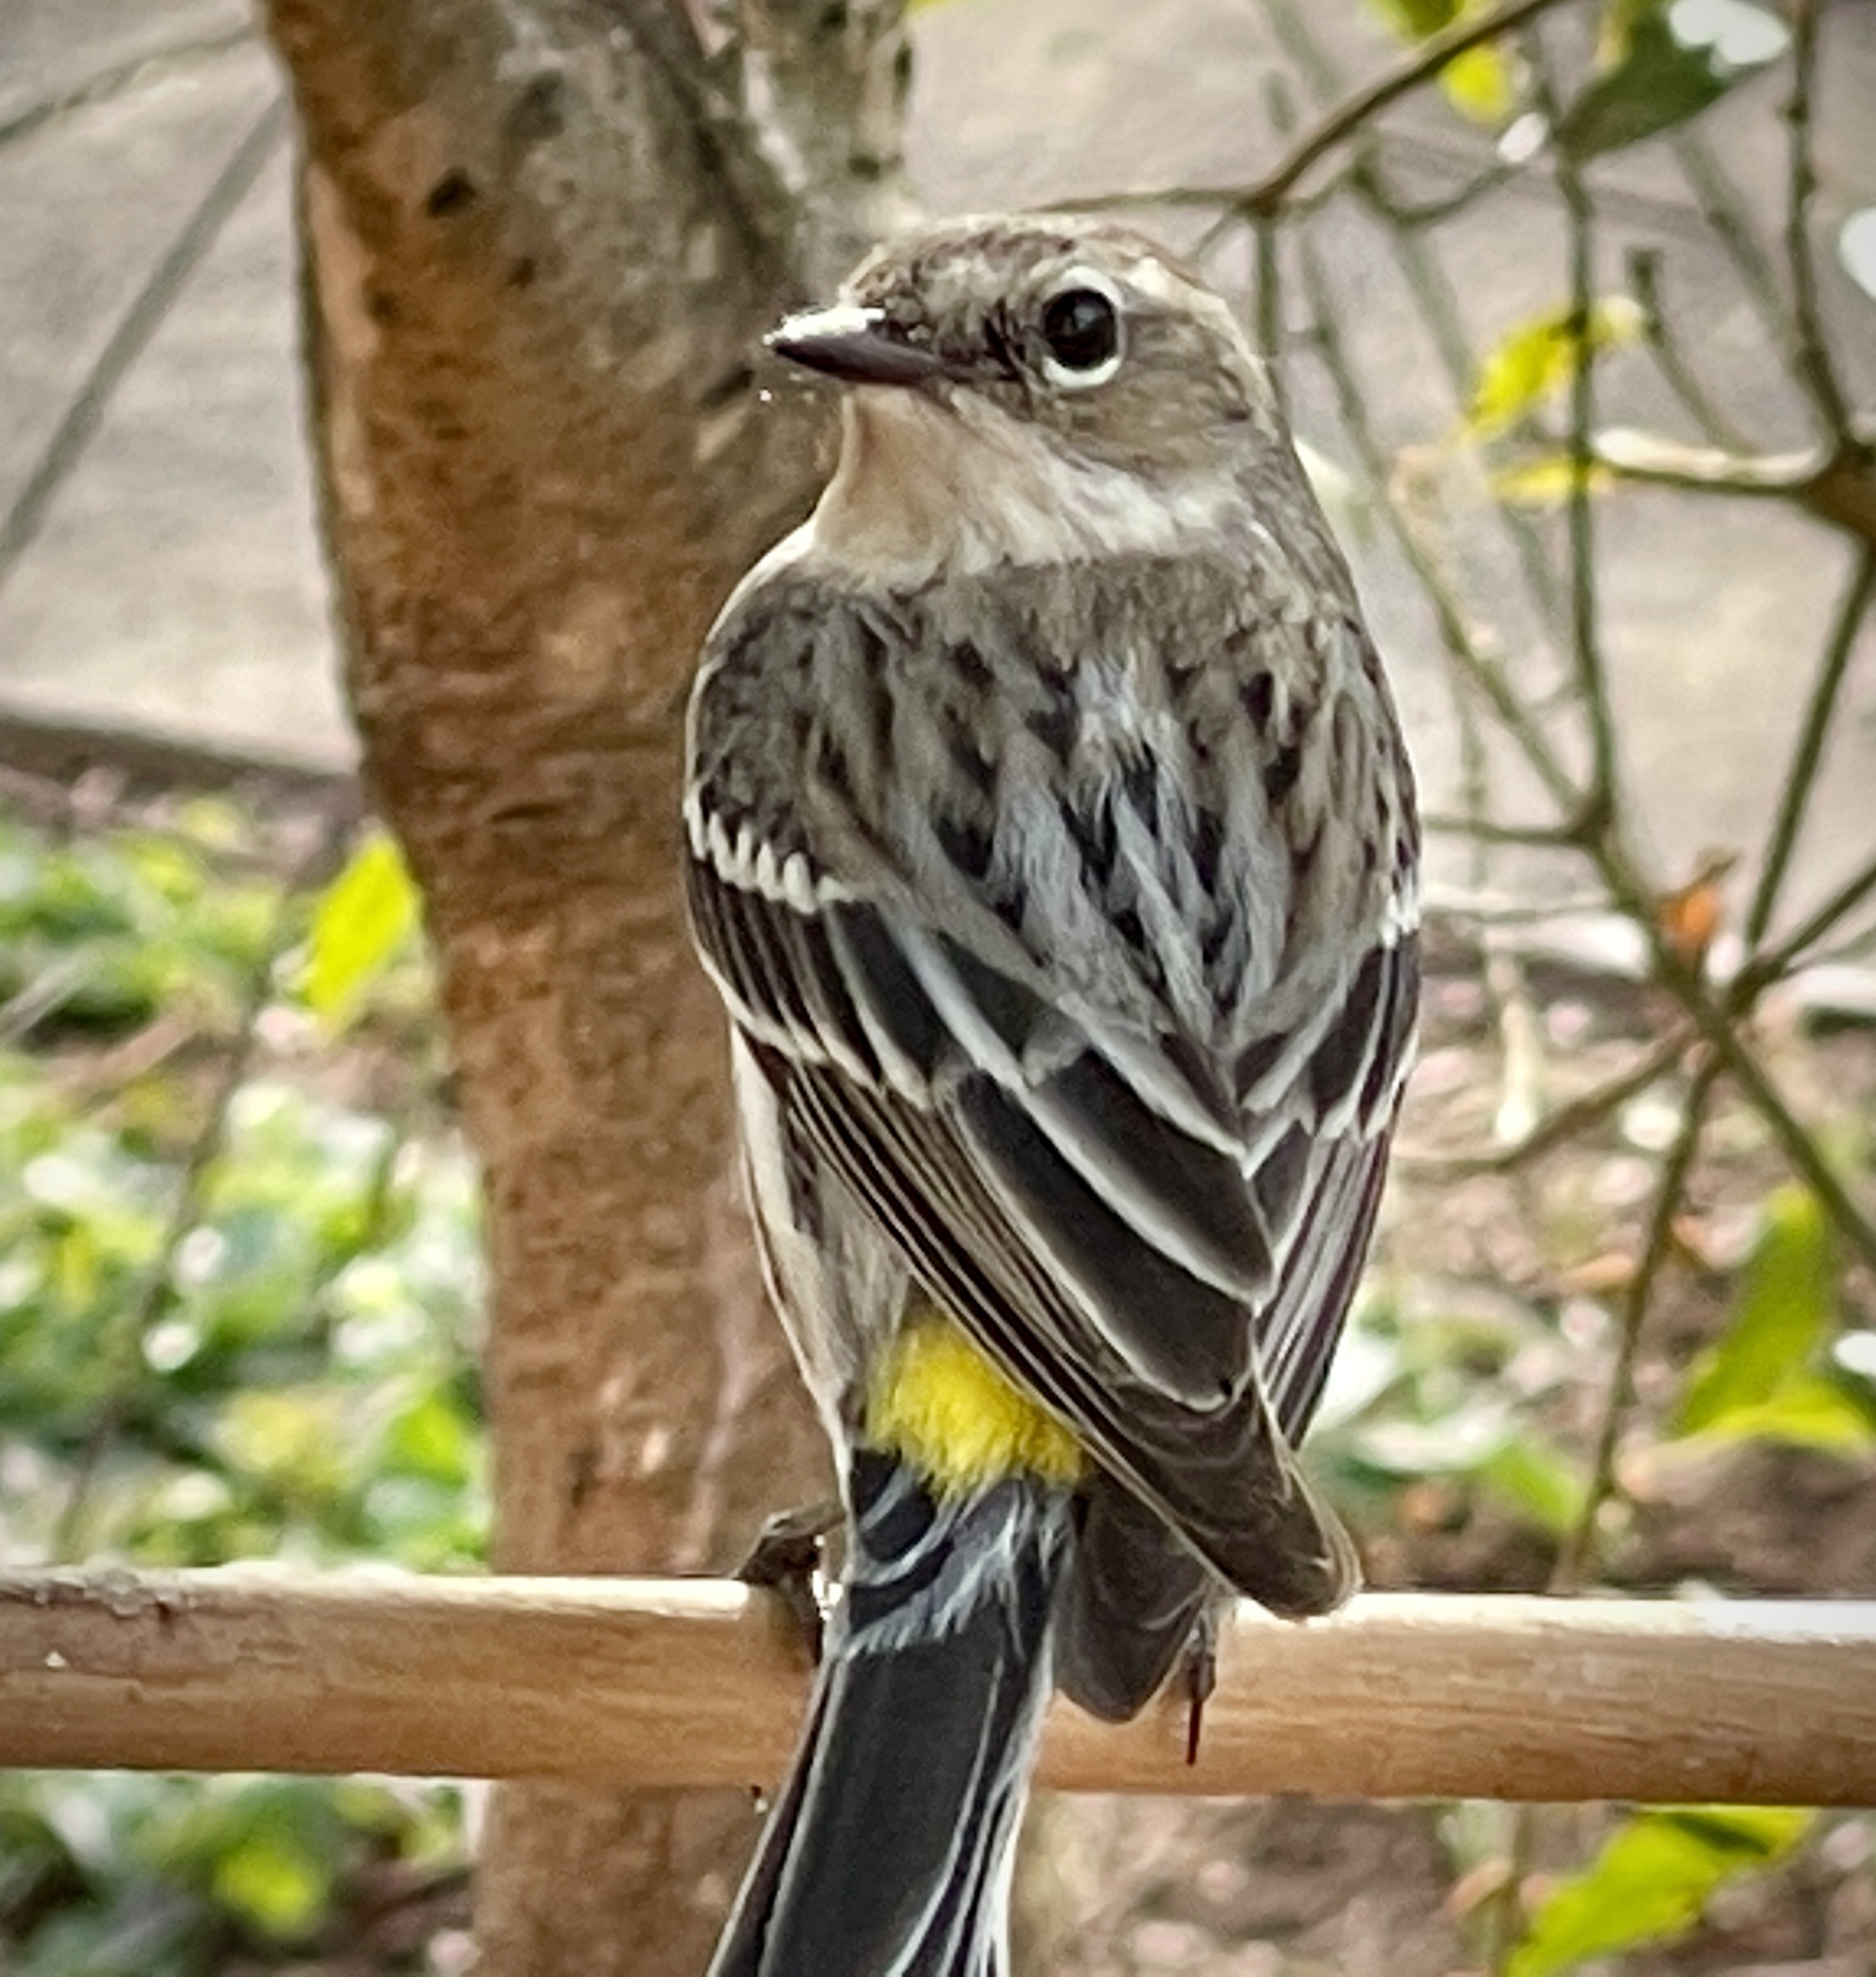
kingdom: Animalia
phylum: Chordata
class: Aves
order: Passeriformes
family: Parulidae
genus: Setophaga
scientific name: Setophaga coronata
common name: Myrtle warbler
